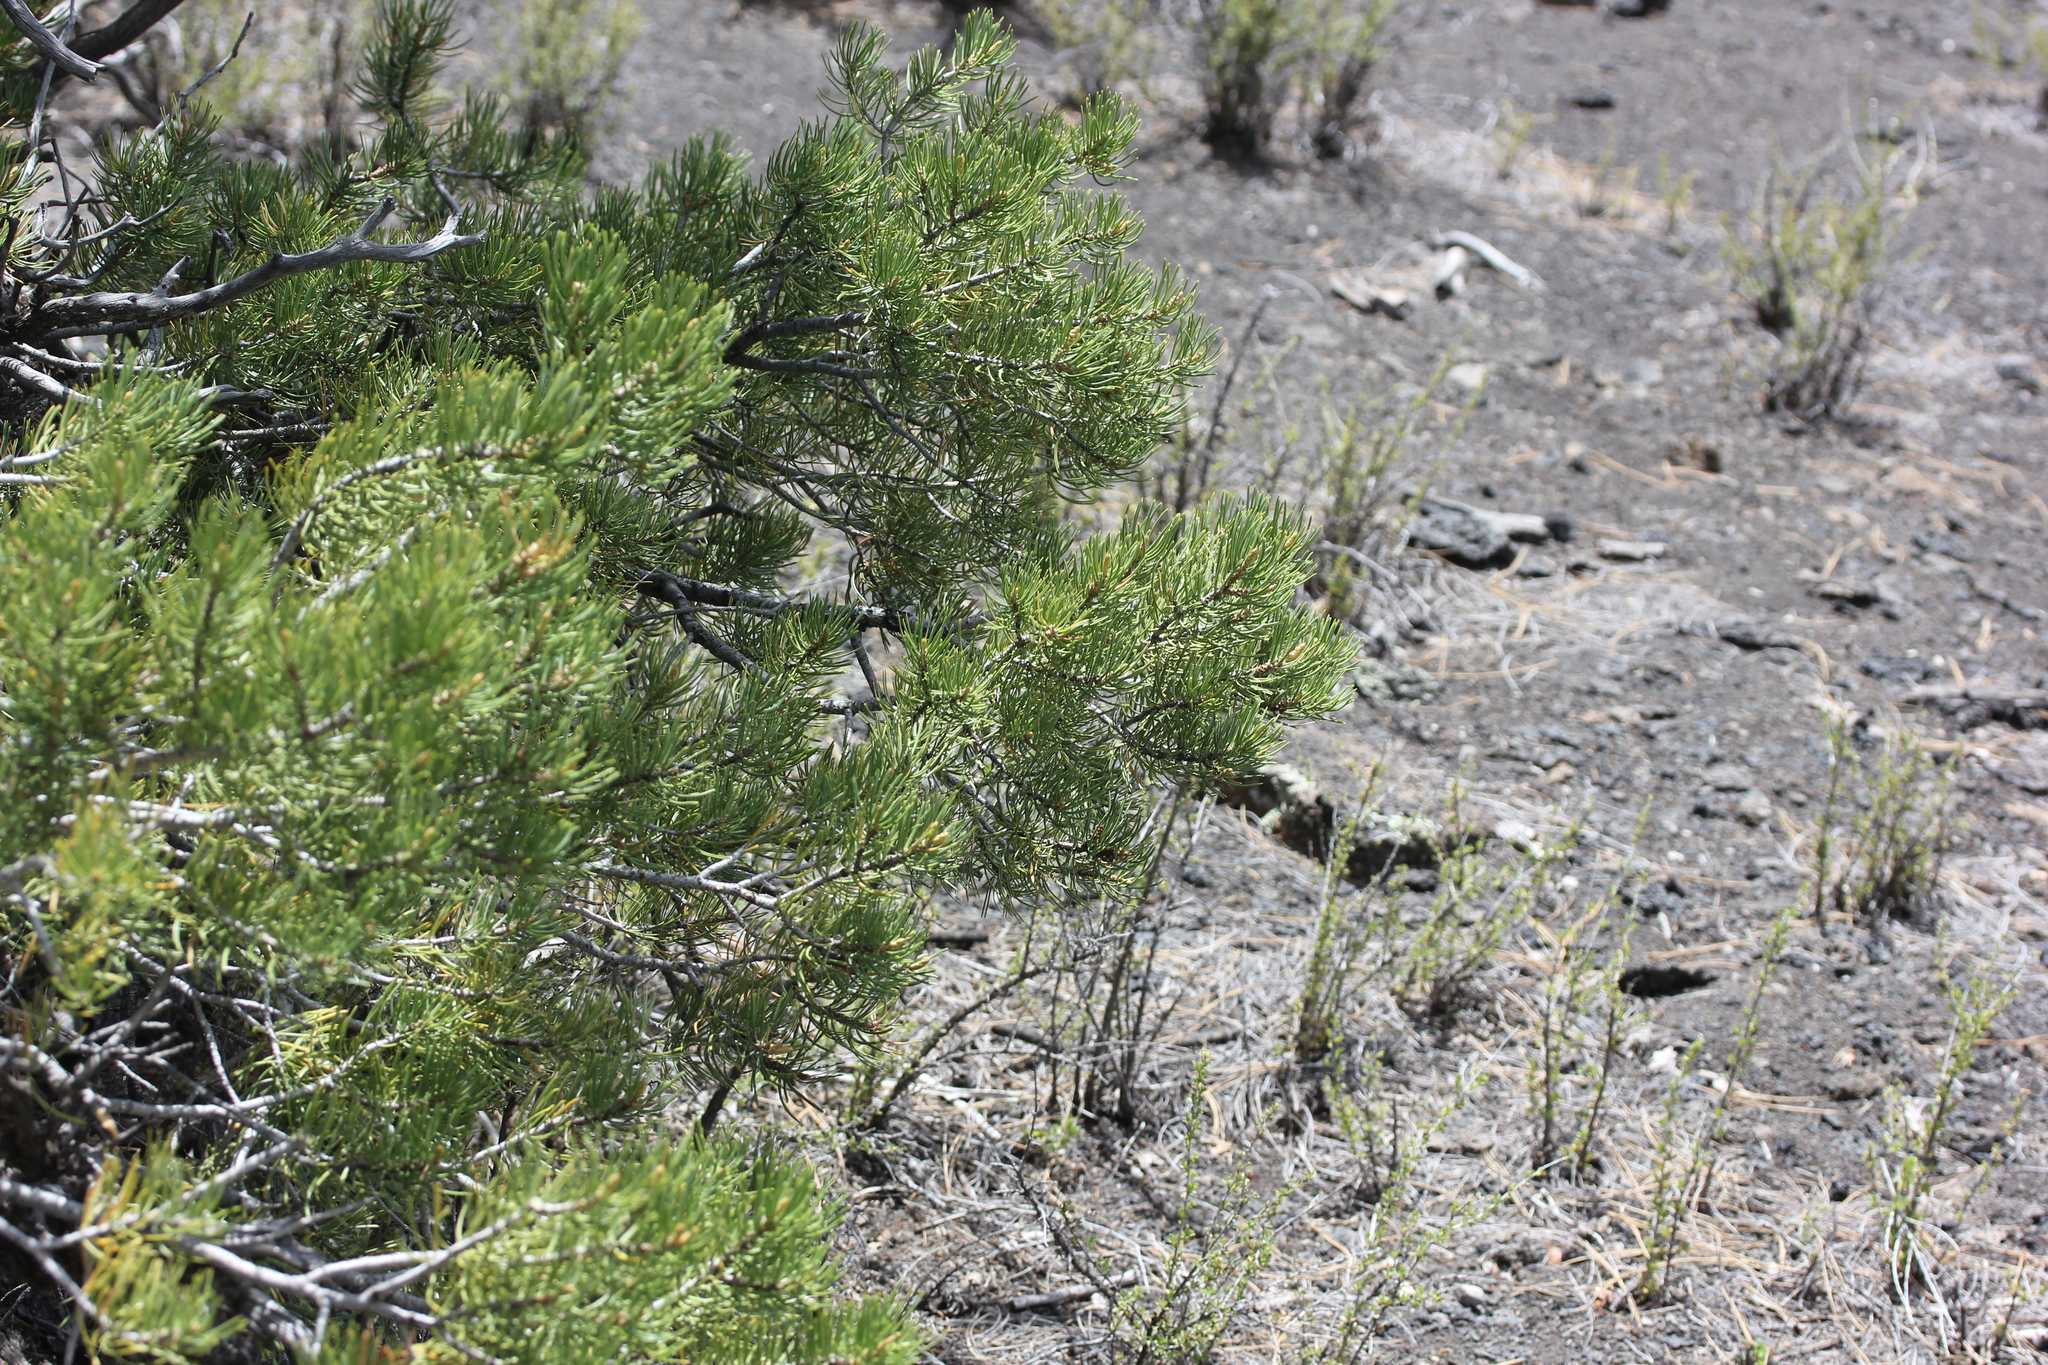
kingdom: Plantae
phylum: Tracheophyta
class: Pinopsida
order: Pinales
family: Pinaceae
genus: Pinus
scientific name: Pinus edulis
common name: Colorado pinyon
